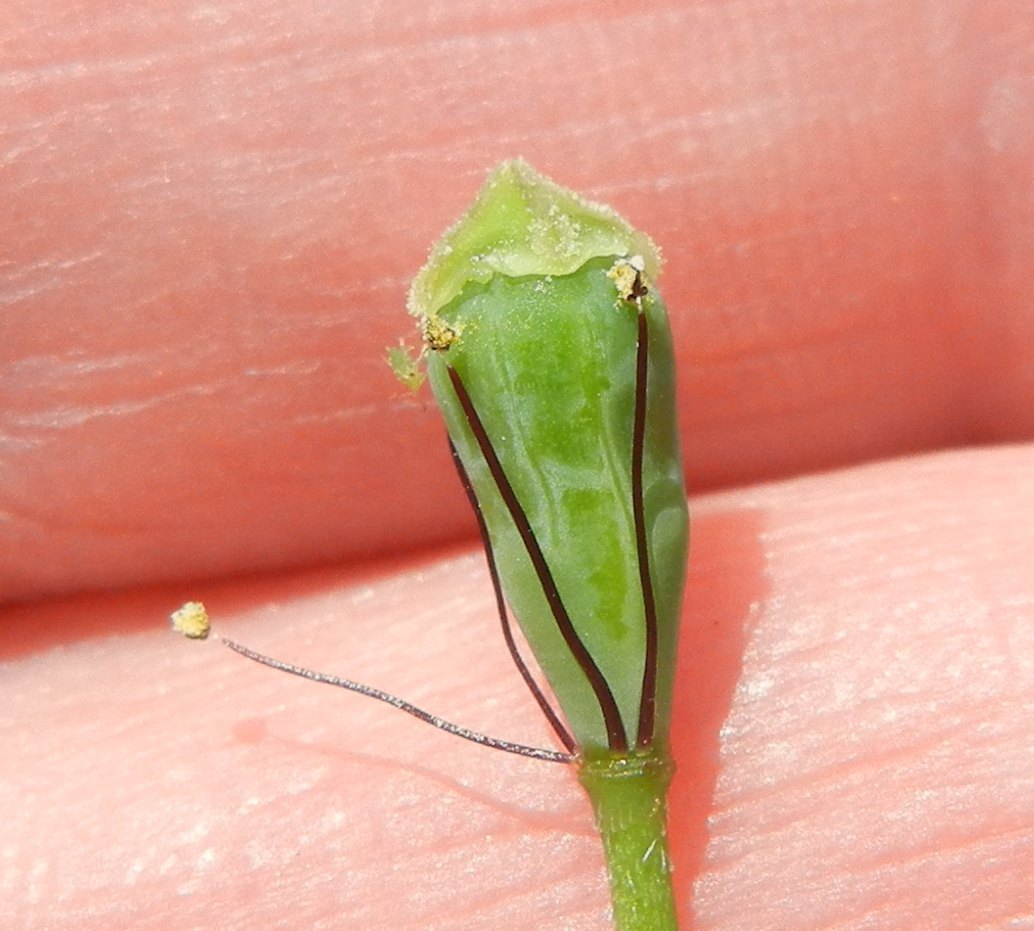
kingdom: Plantae
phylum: Tracheophyta
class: Magnoliopsida
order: Ranunculales
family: Papaveraceae
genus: Papaver
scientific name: Papaver lecoqii
